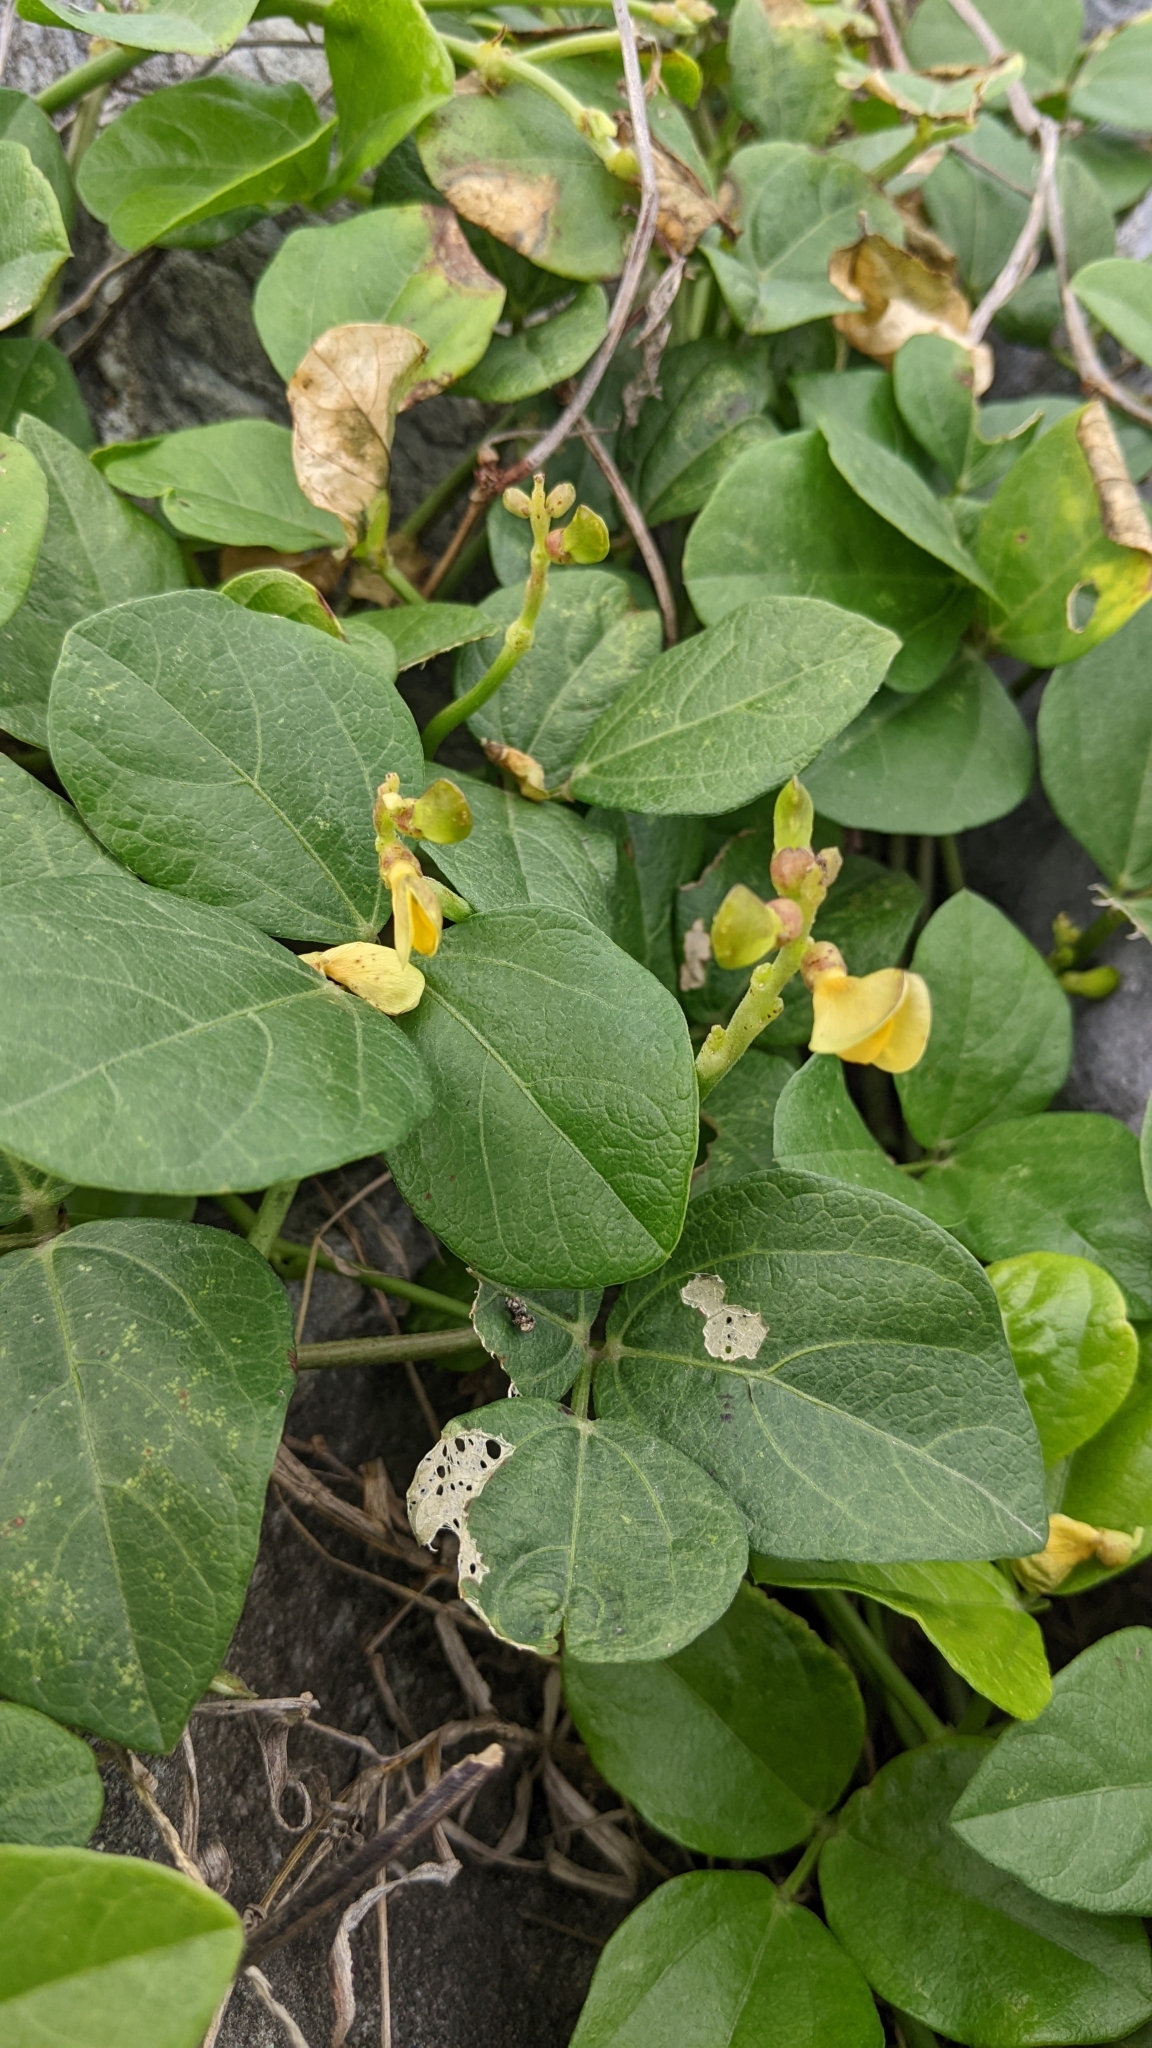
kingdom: Plantae
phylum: Tracheophyta
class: Magnoliopsida
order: Fabales
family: Fabaceae
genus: Vigna
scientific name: Vigna marina
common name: Dune-bean
